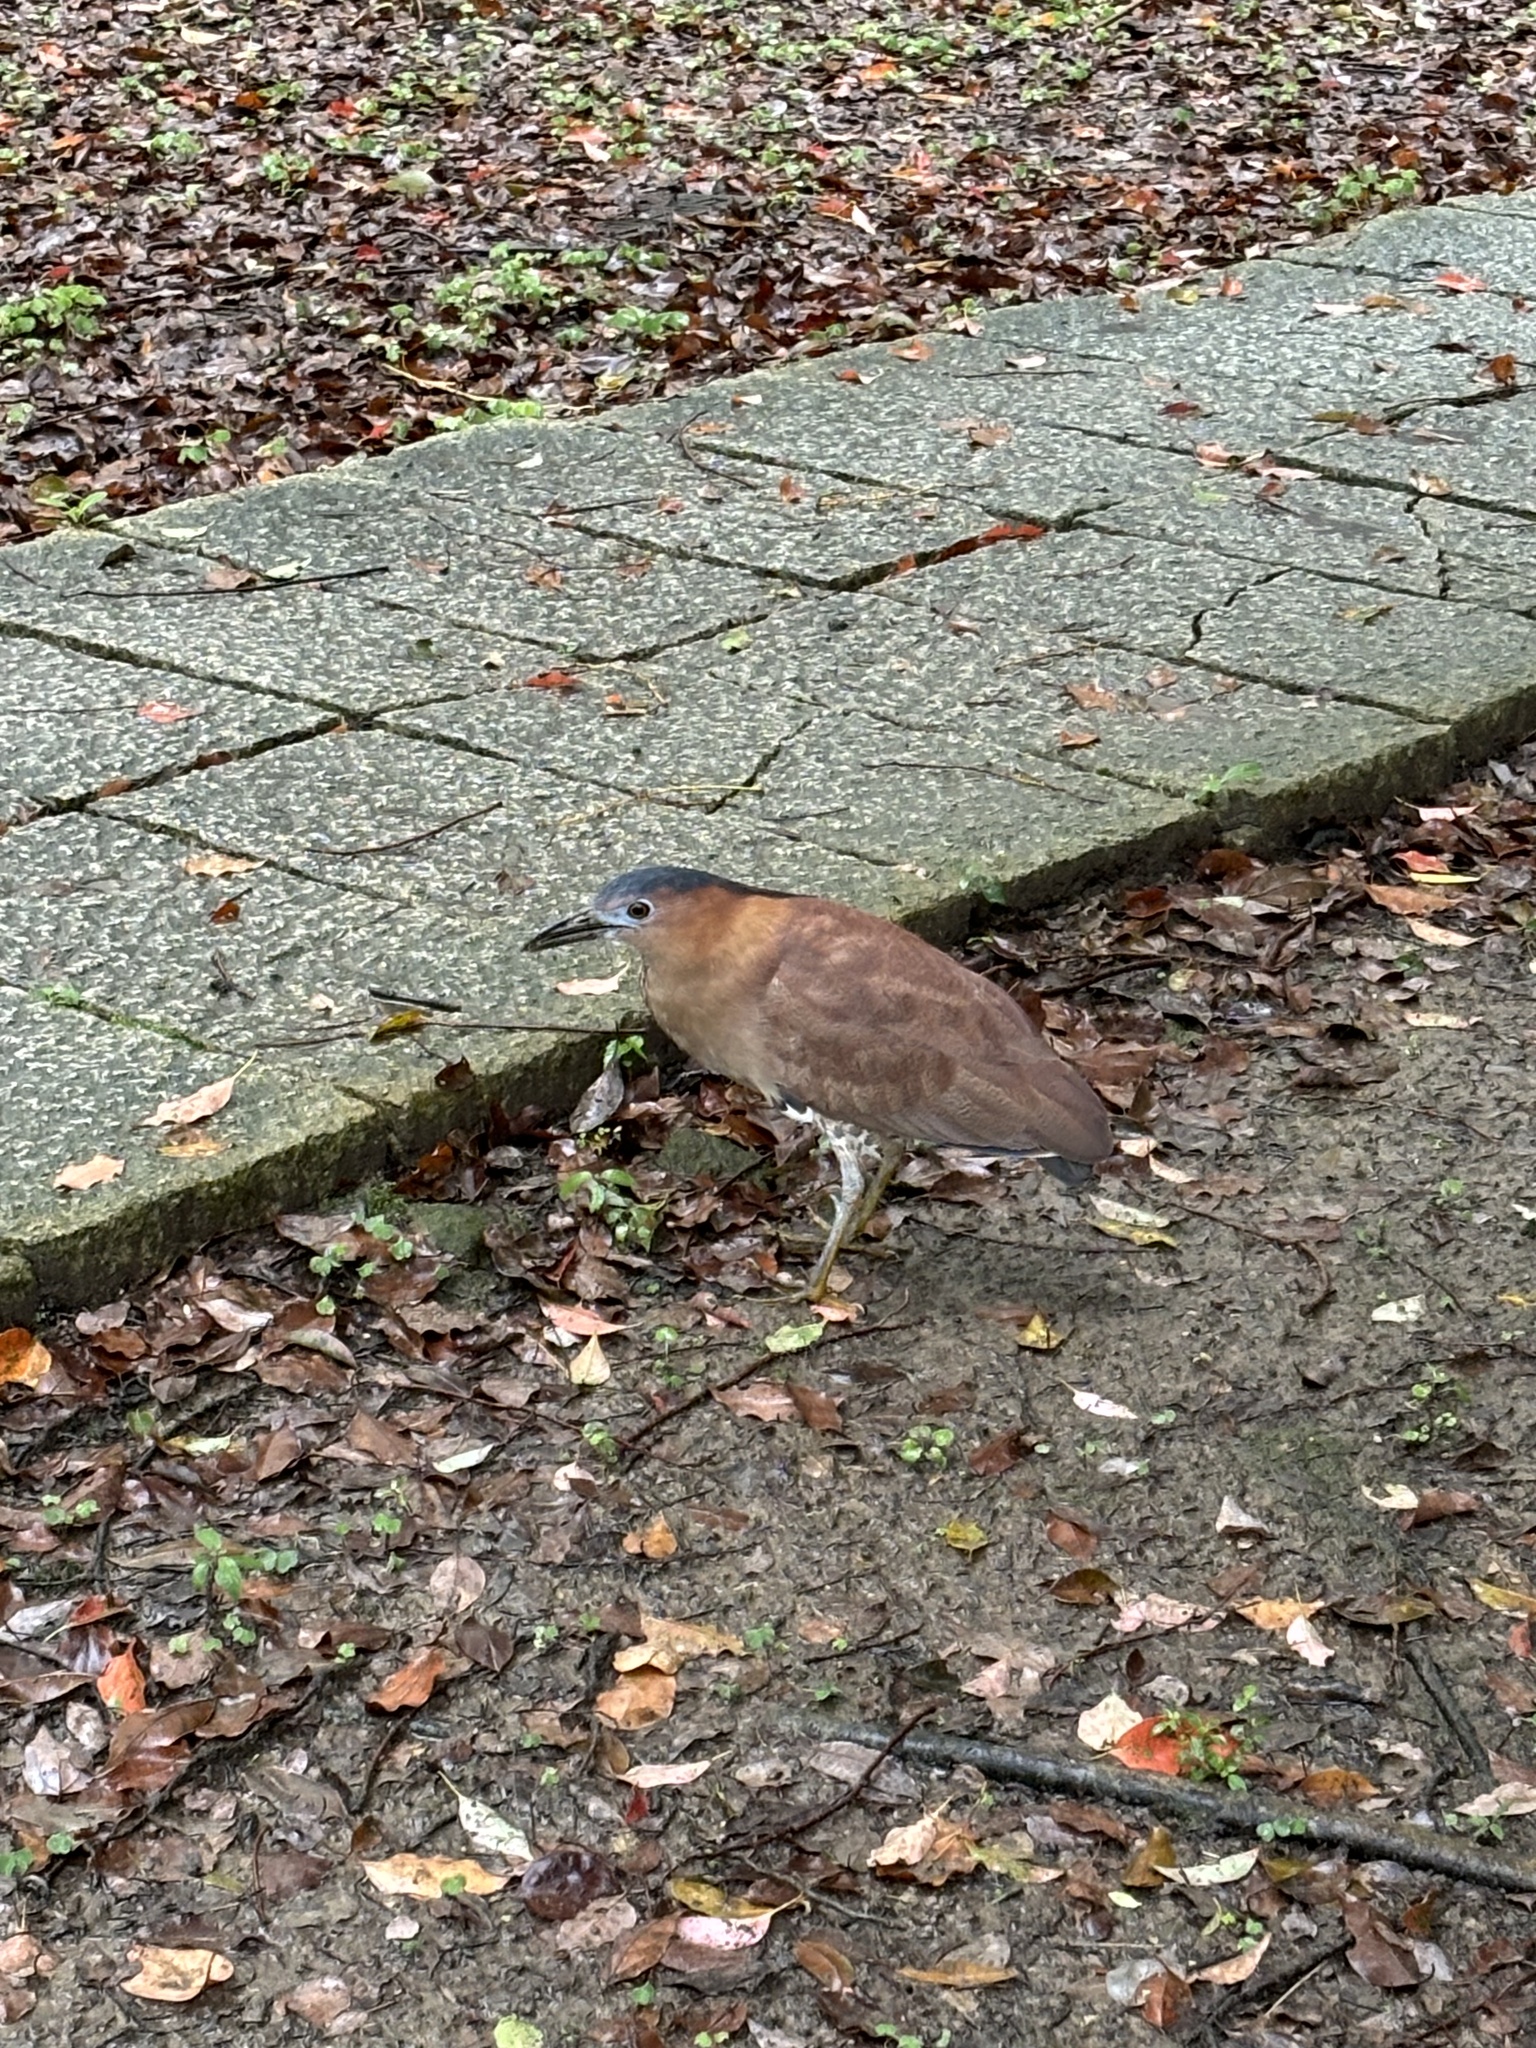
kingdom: Animalia
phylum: Chordata
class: Aves
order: Pelecaniformes
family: Ardeidae
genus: Gorsachius
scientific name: Gorsachius melanolophus
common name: Malayan night heron
